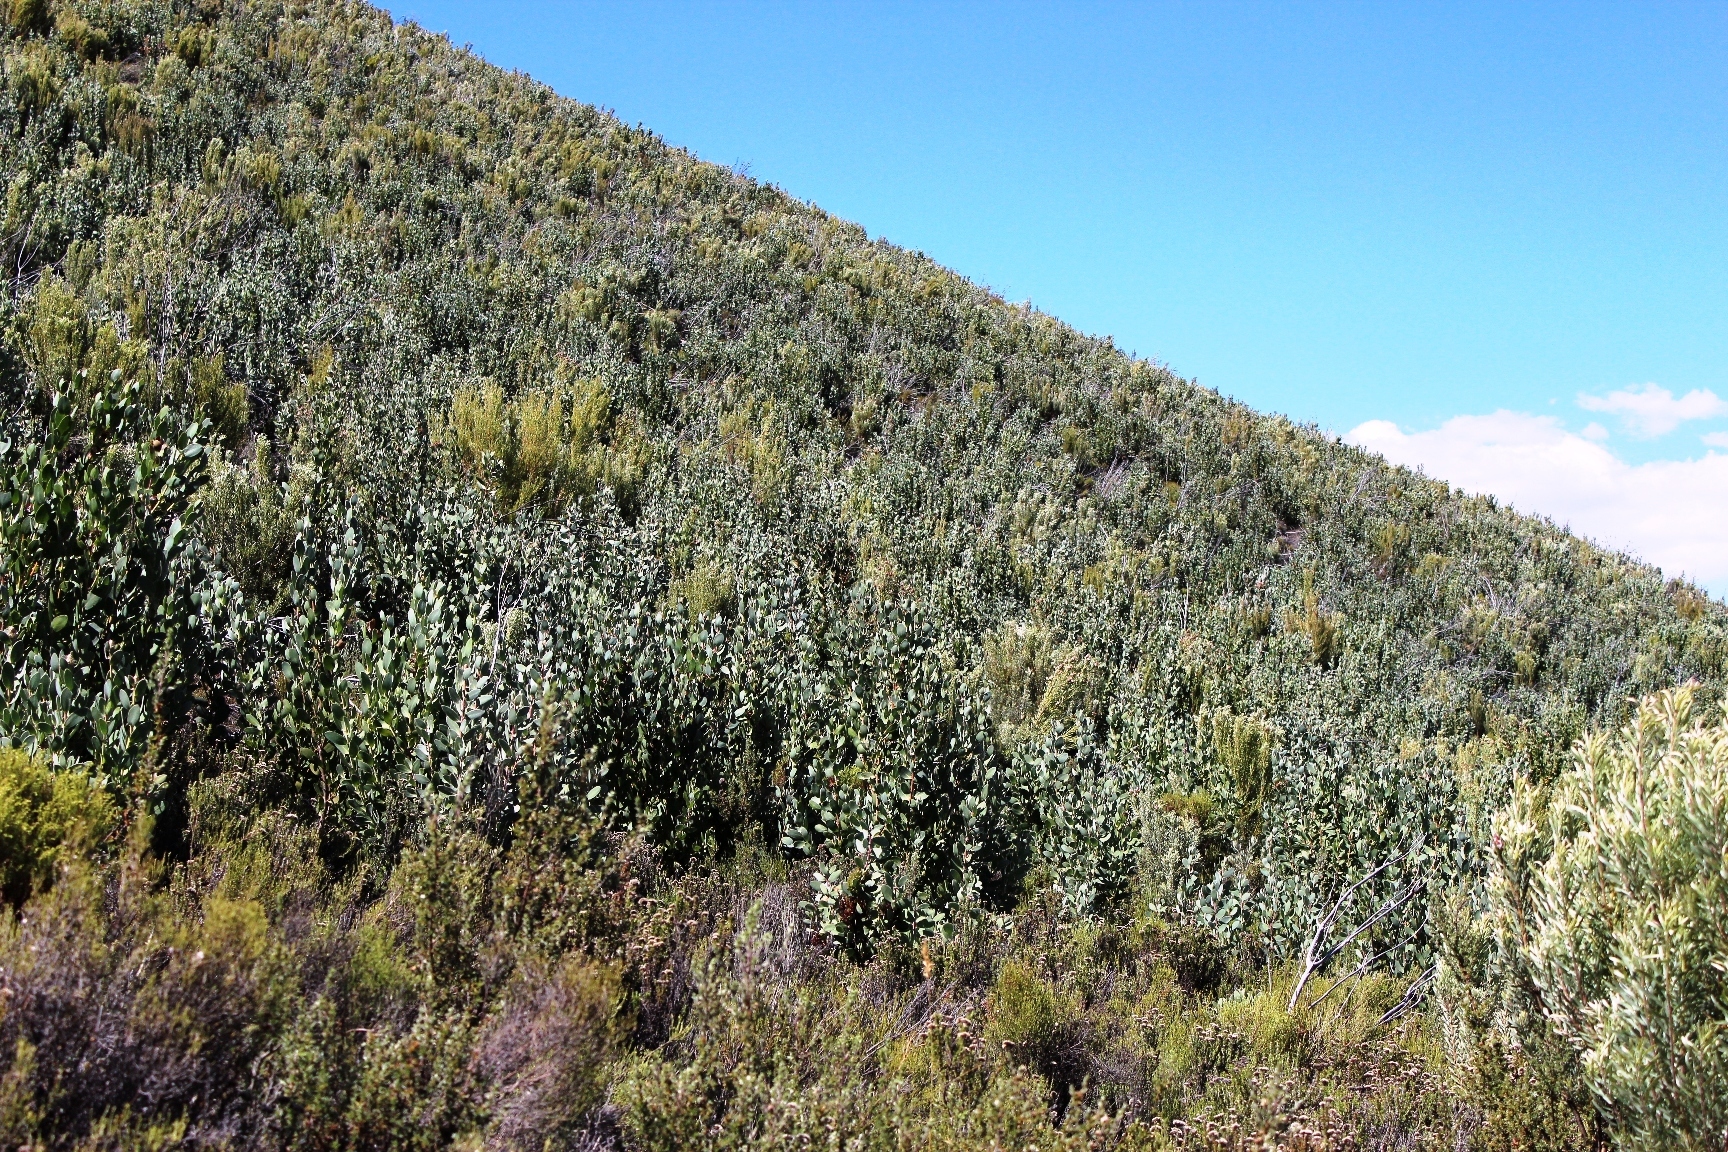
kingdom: Plantae
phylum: Tracheophyta
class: Magnoliopsida
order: Proteales
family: Proteaceae
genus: Protea
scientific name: Protea punctata
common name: Water sugarbush
